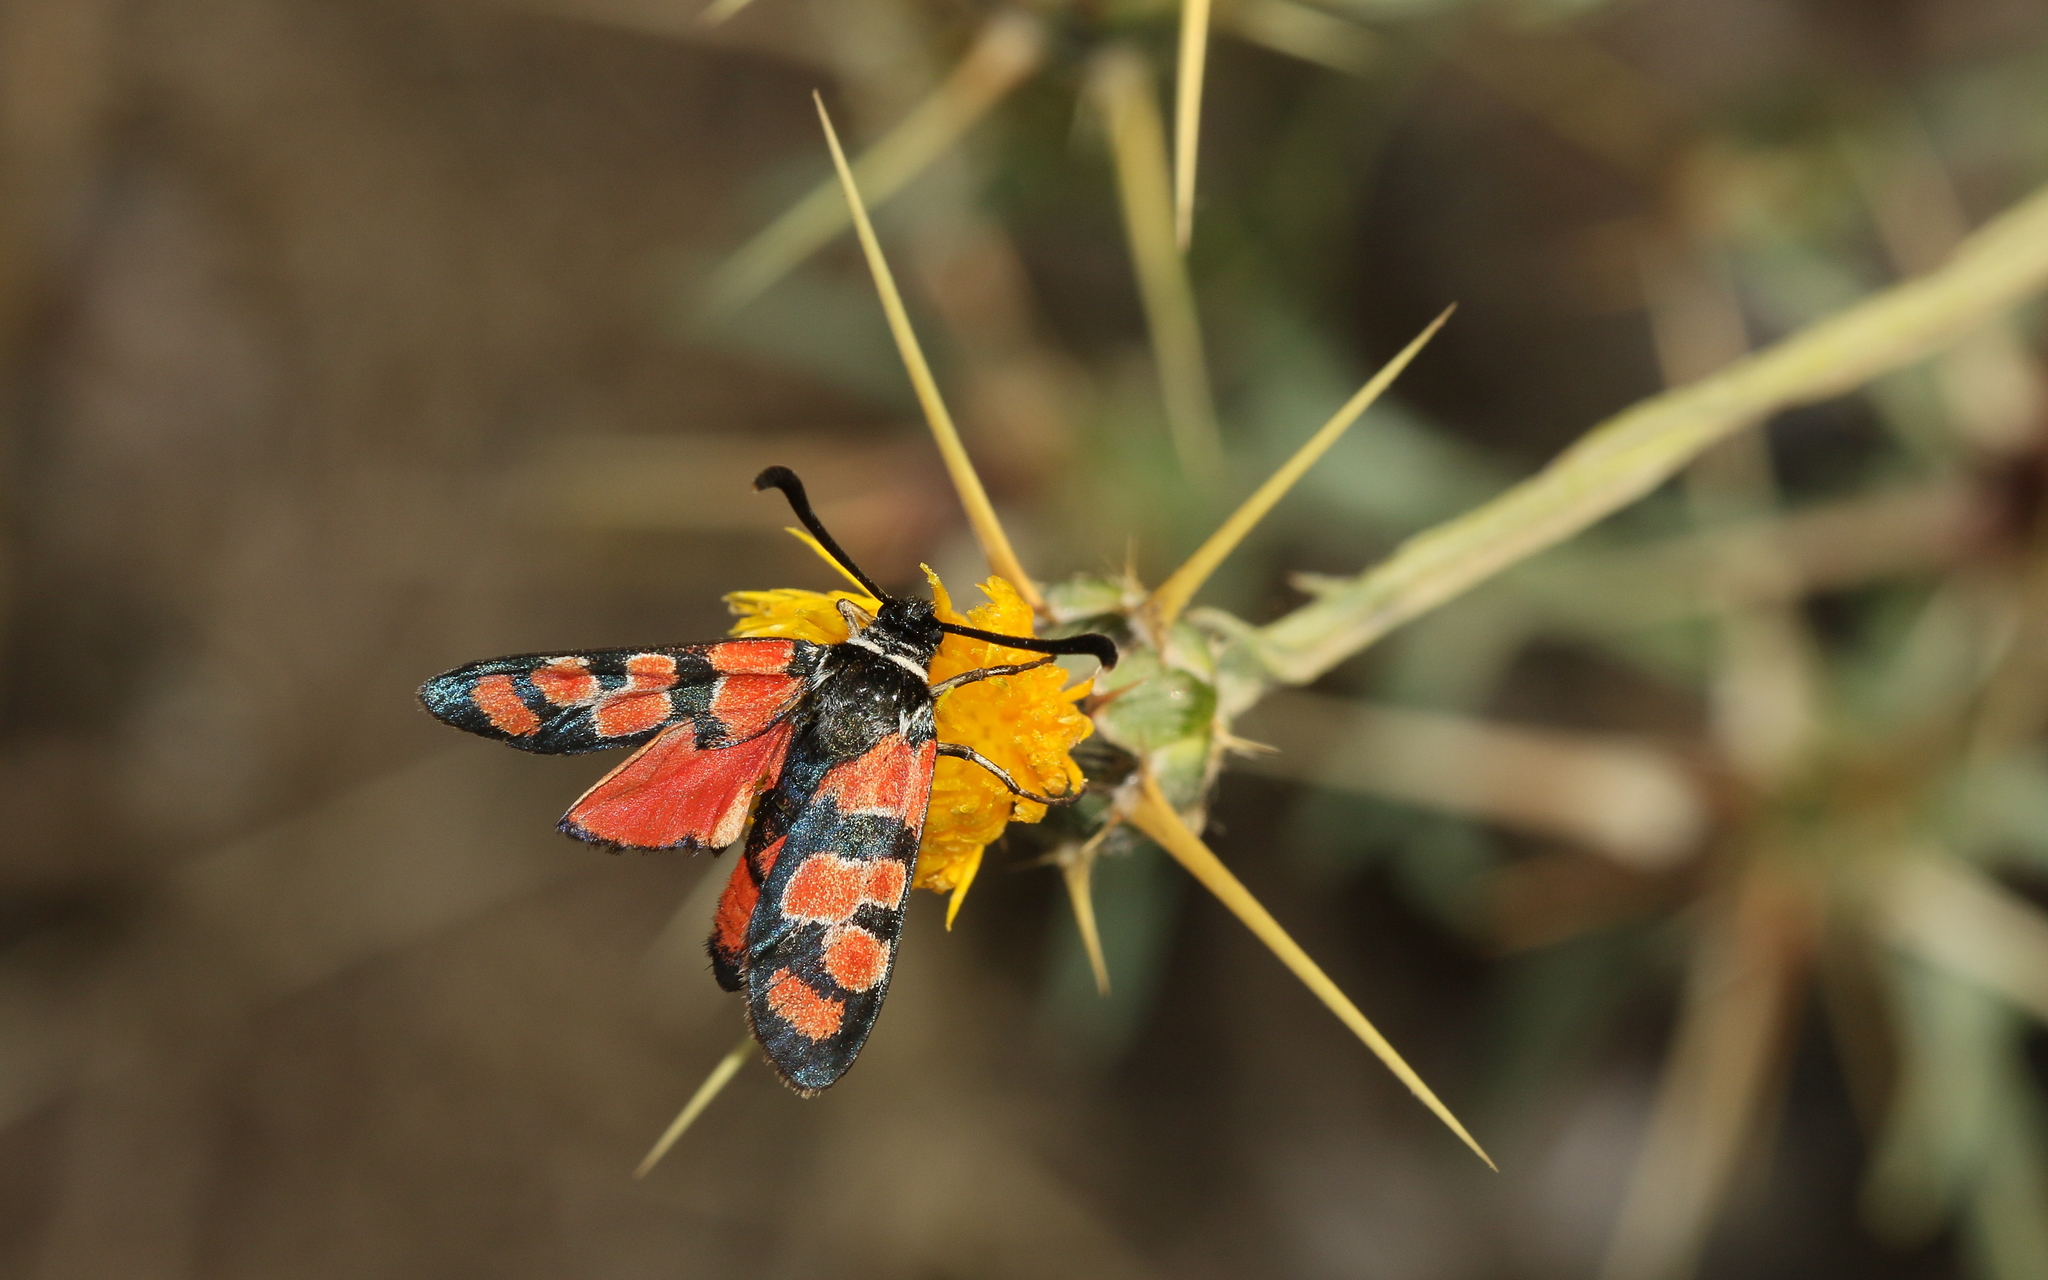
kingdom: Animalia
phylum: Arthropoda
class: Insecta
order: Lepidoptera
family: Zygaenidae
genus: Zygaena
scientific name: Zygaena carniolica
